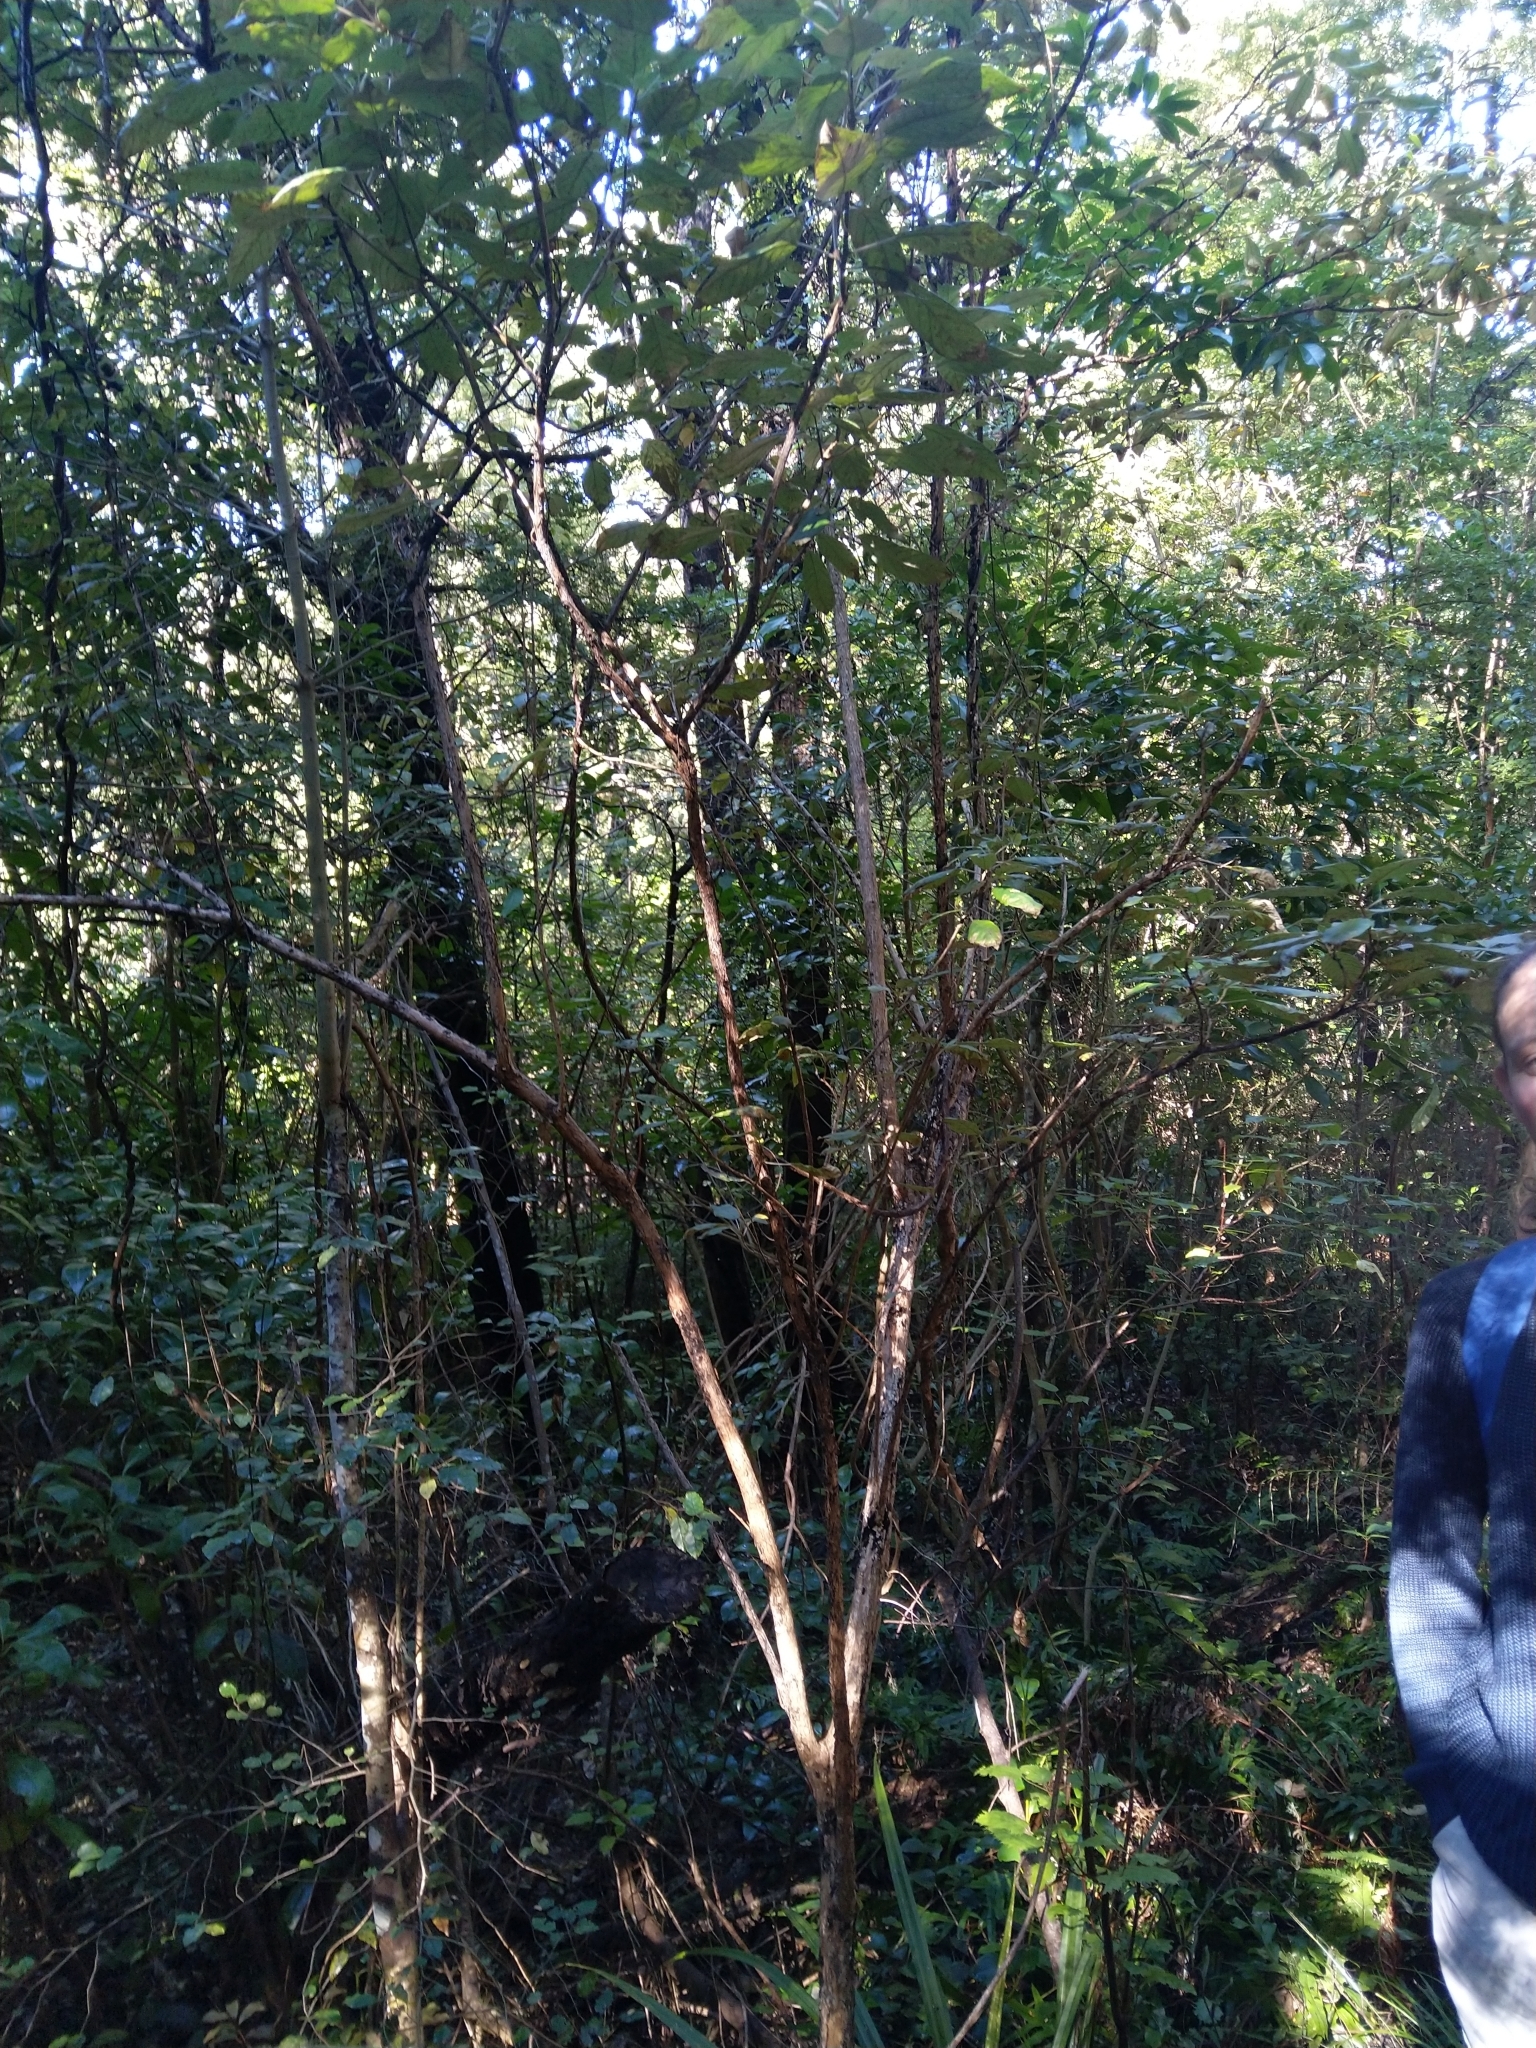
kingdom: Plantae
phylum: Tracheophyta
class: Magnoliopsida
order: Myrtales
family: Onagraceae
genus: Fuchsia
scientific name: Fuchsia excorticata
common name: Tree fuchsia
